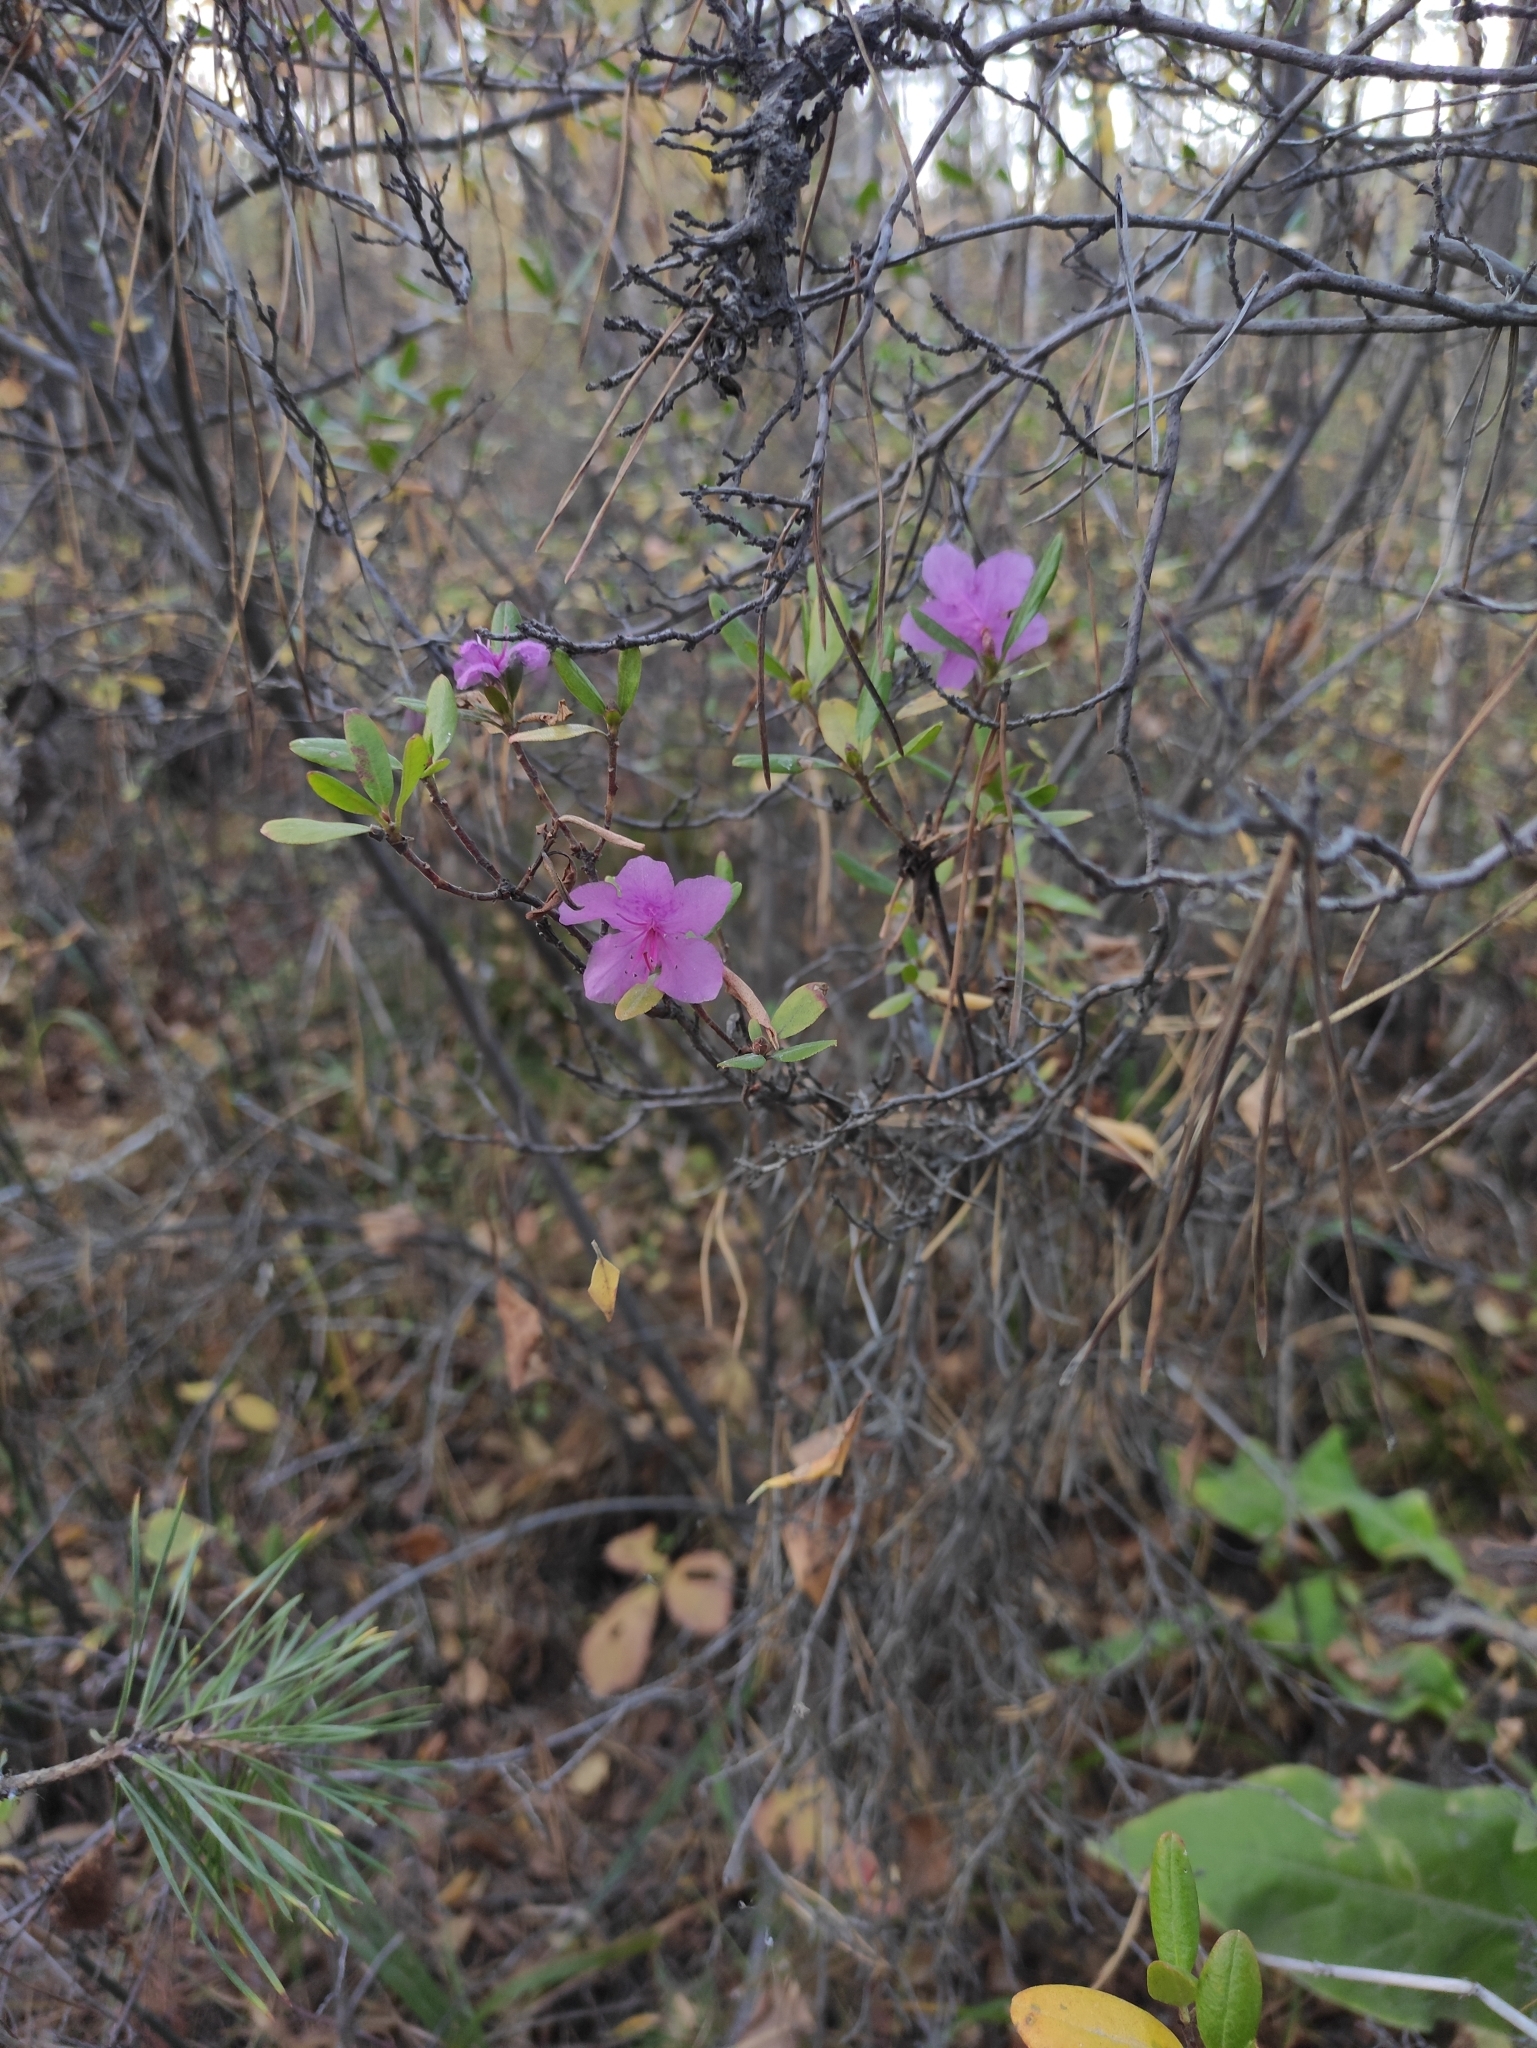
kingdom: Plantae
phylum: Tracheophyta
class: Magnoliopsida
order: Ericales
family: Ericaceae
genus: Rhododendron
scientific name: Rhododendron dauricum
